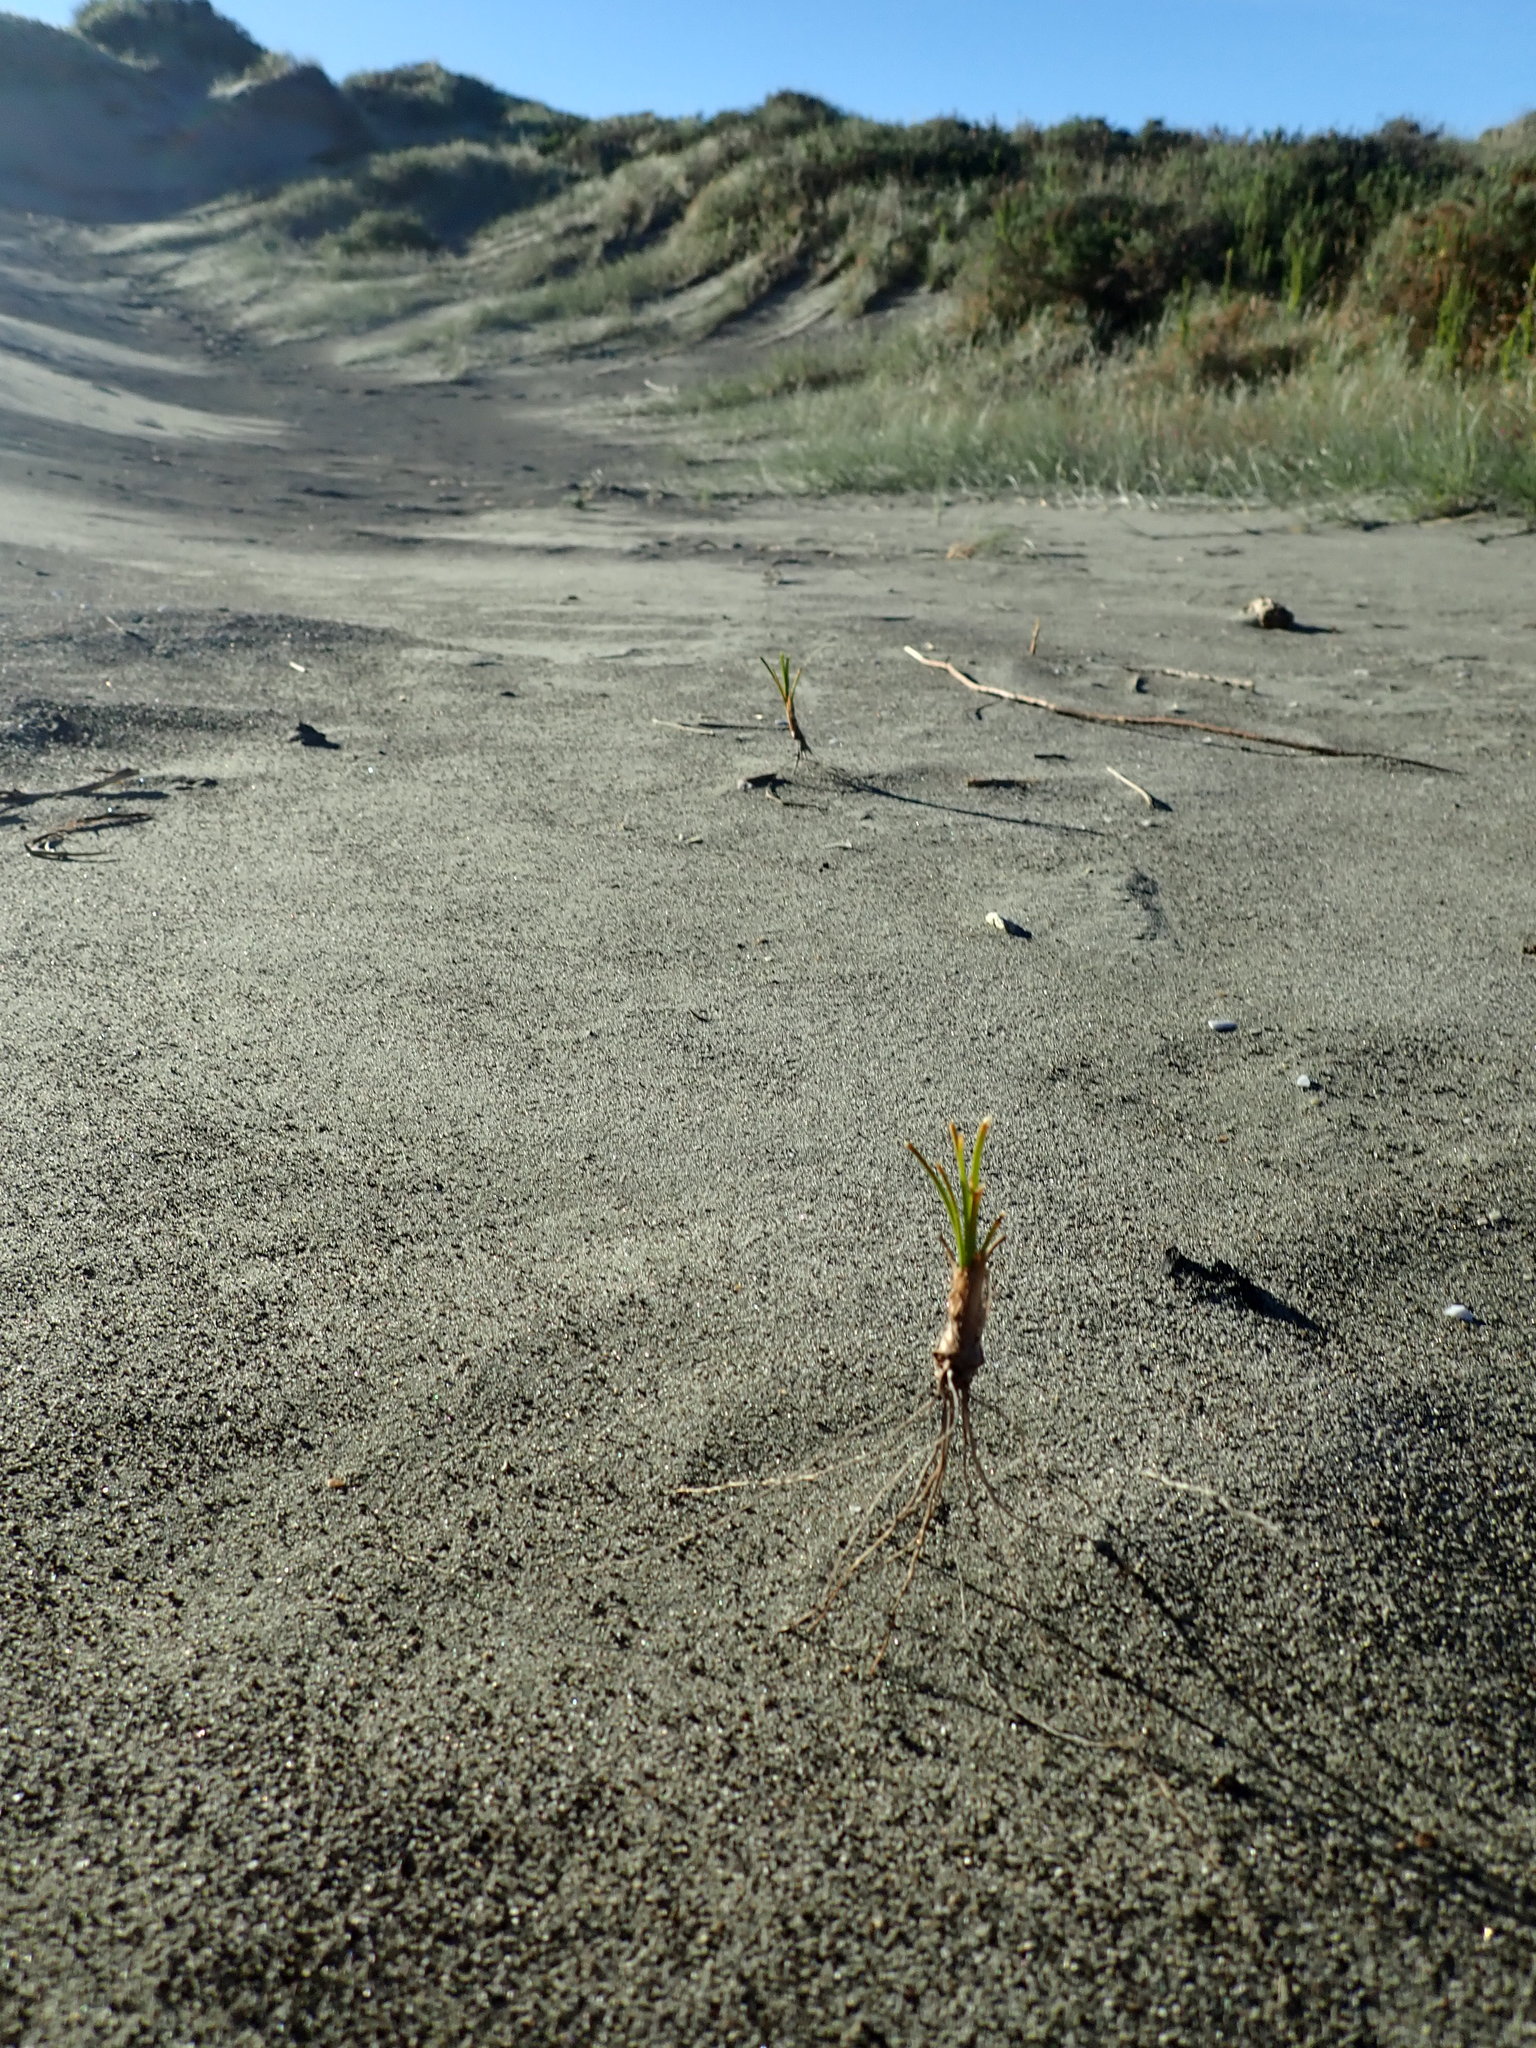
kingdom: Plantae
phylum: Tracheophyta
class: Liliopsida
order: Poales
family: Cyperaceae
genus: Ficinia
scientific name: Ficinia spiralis
